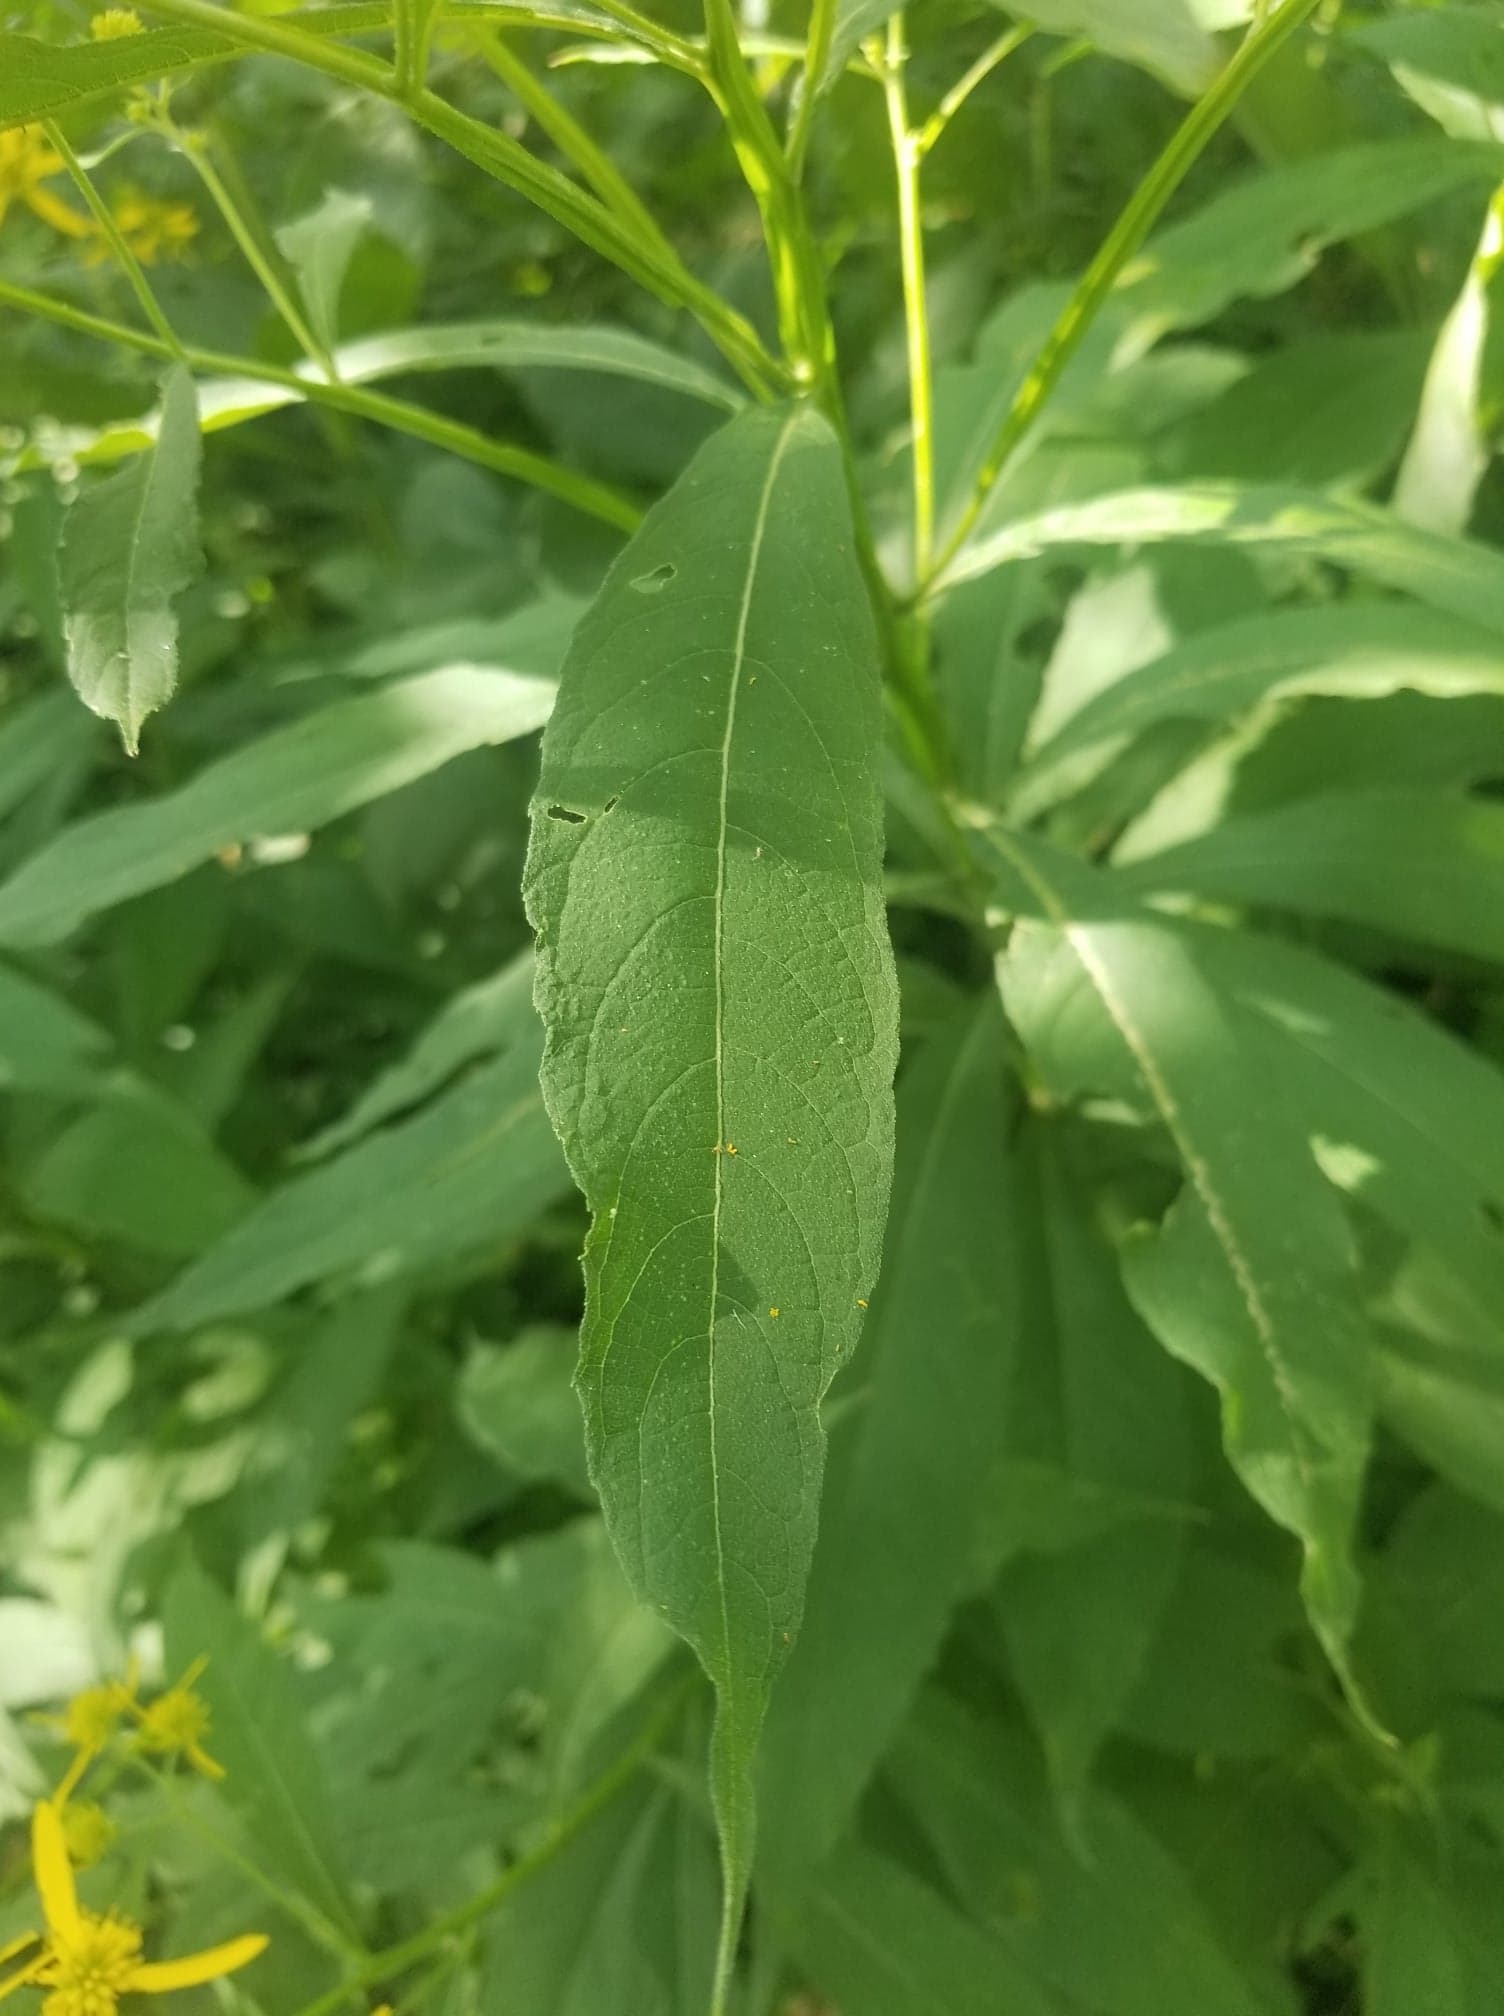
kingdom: Plantae
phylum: Tracheophyta
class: Magnoliopsida
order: Asterales
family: Asteraceae
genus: Verbesina
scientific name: Verbesina alternifolia
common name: Wingstem
